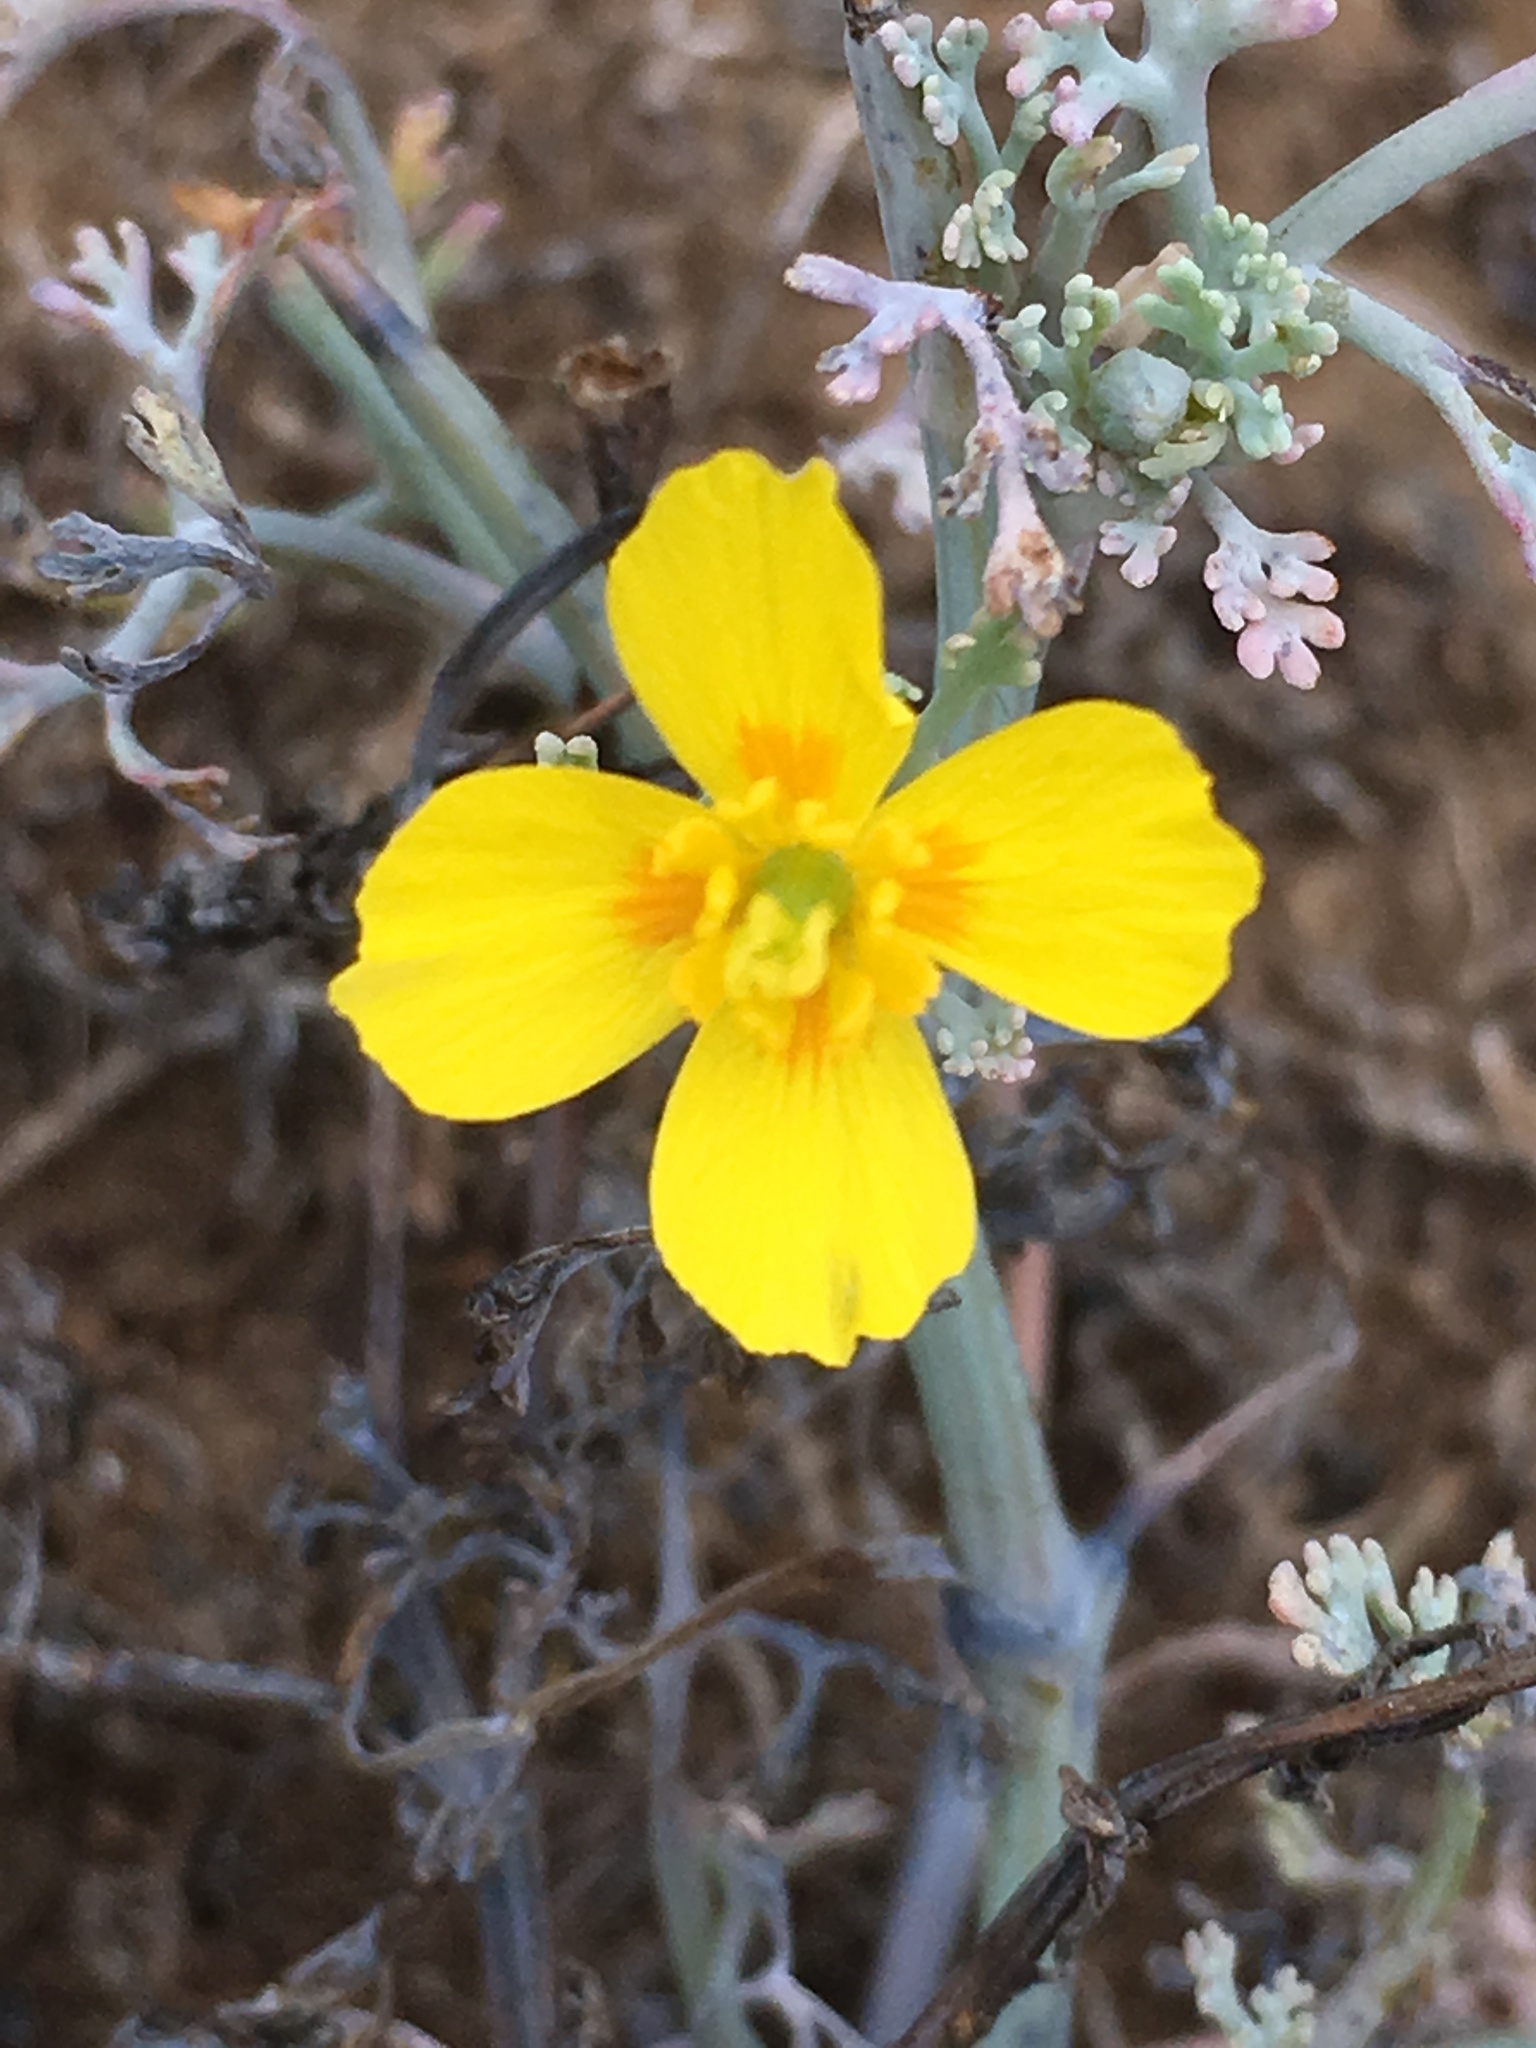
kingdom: Plantae
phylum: Tracheophyta
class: Magnoliopsida
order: Ranunculales
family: Papaveraceae
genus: Eschscholzia
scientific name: Eschscholzia ramosa
